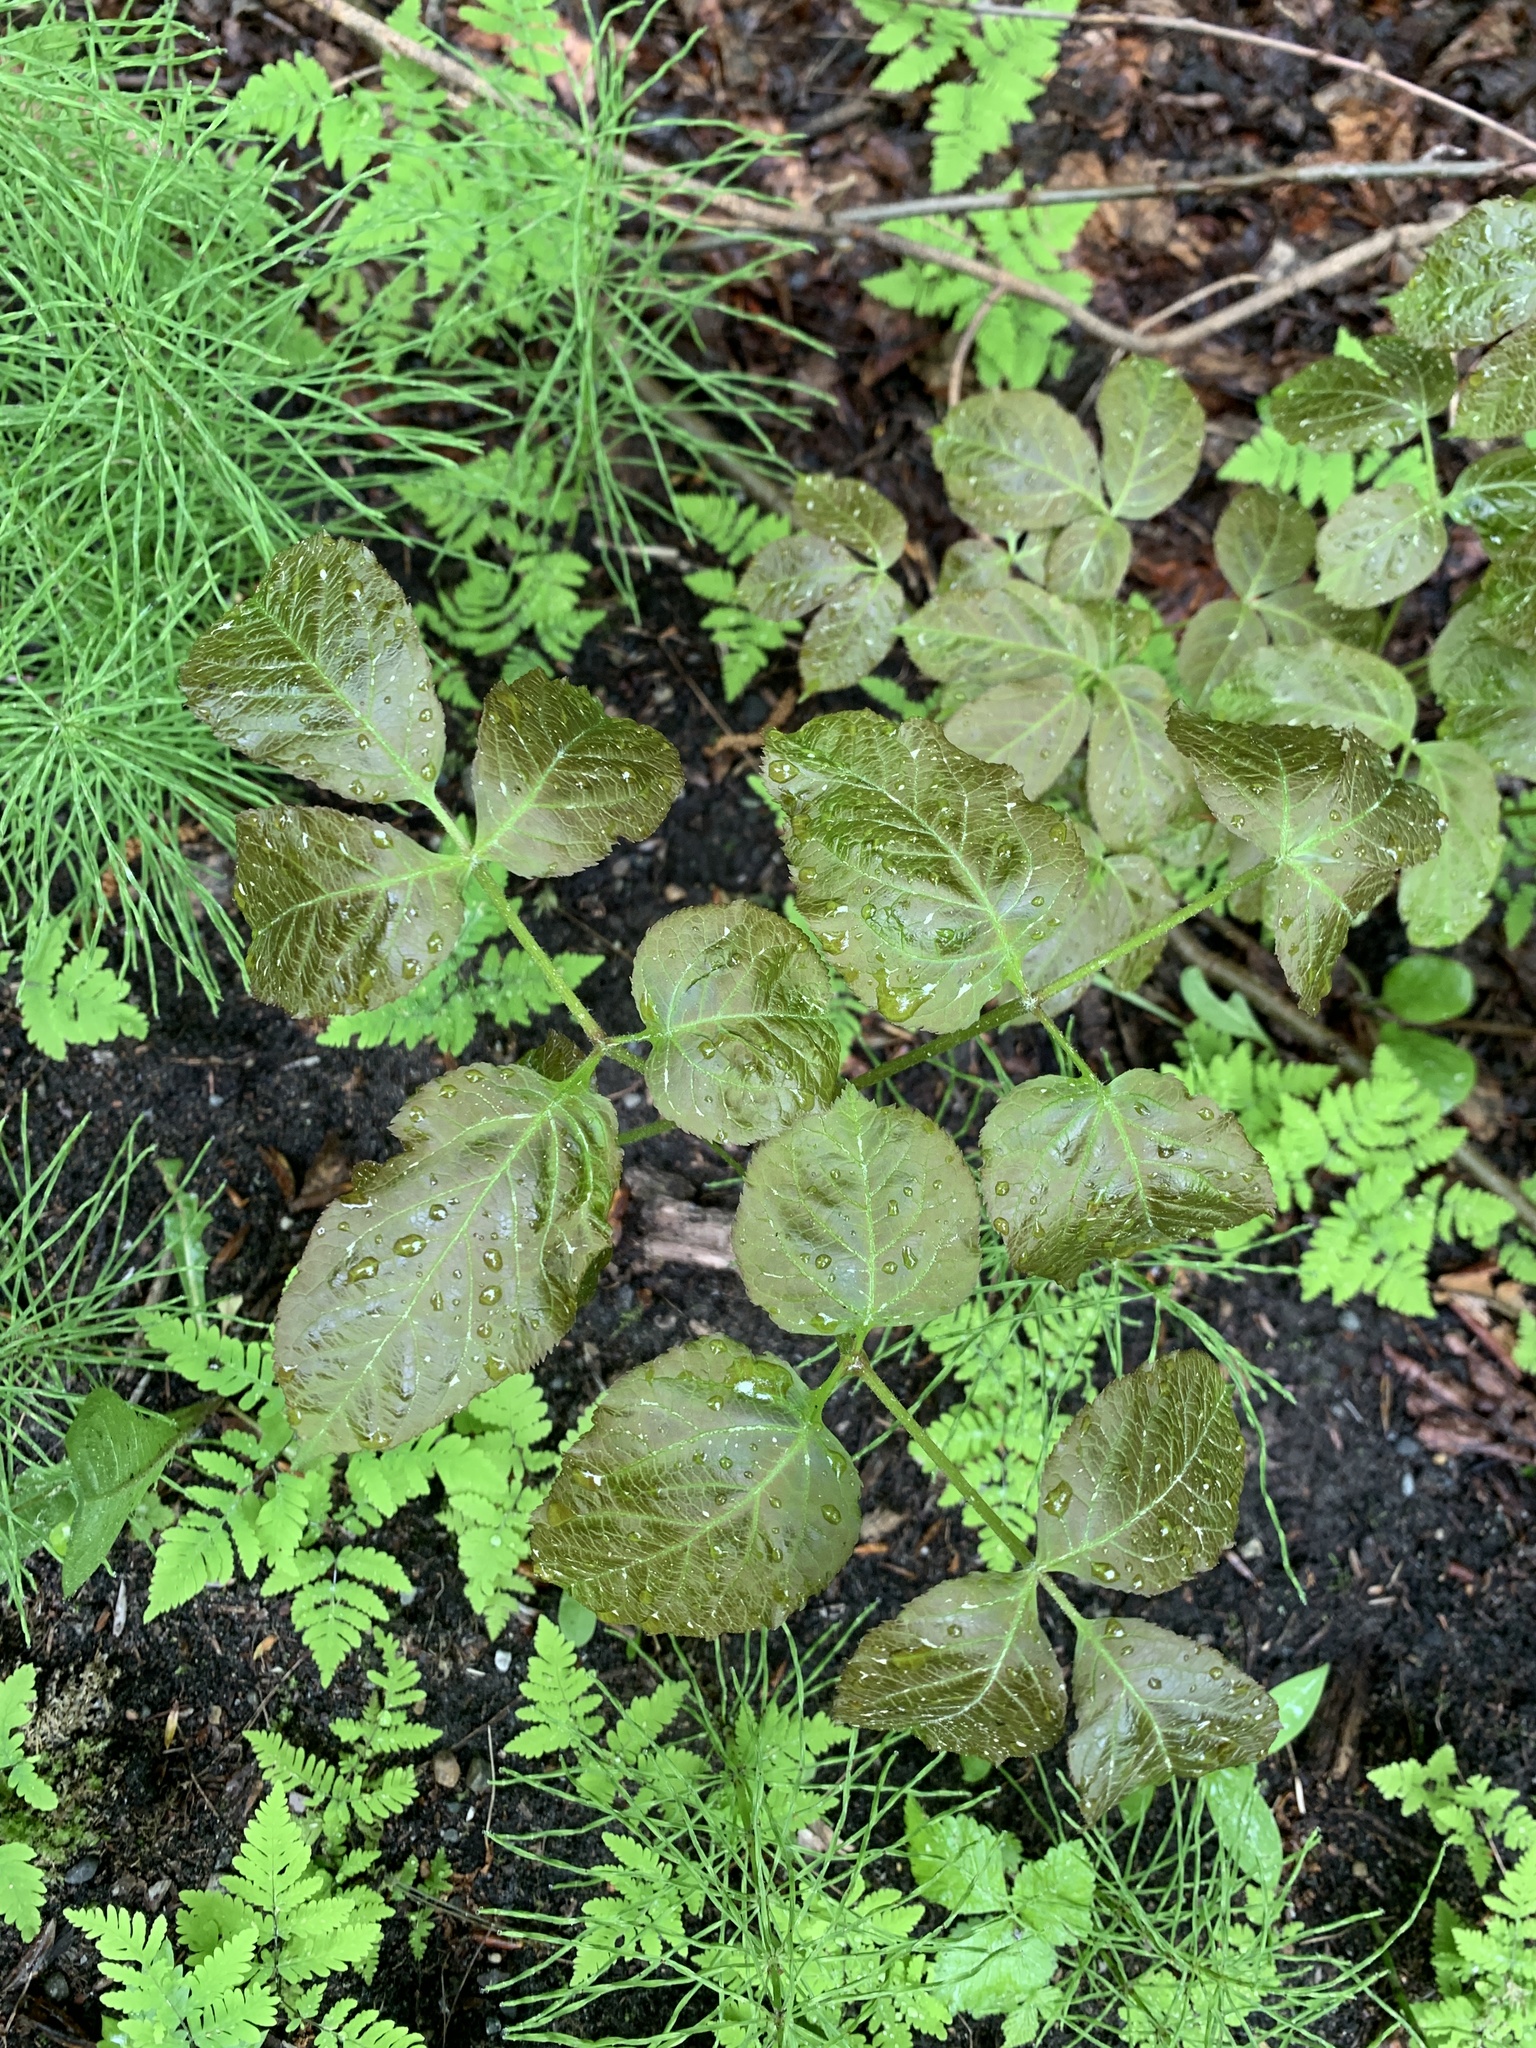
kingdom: Plantae
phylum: Tracheophyta
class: Magnoliopsida
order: Apiales
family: Araliaceae
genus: Aralia
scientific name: Aralia nudicaulis
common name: Wild sarsaparilla
